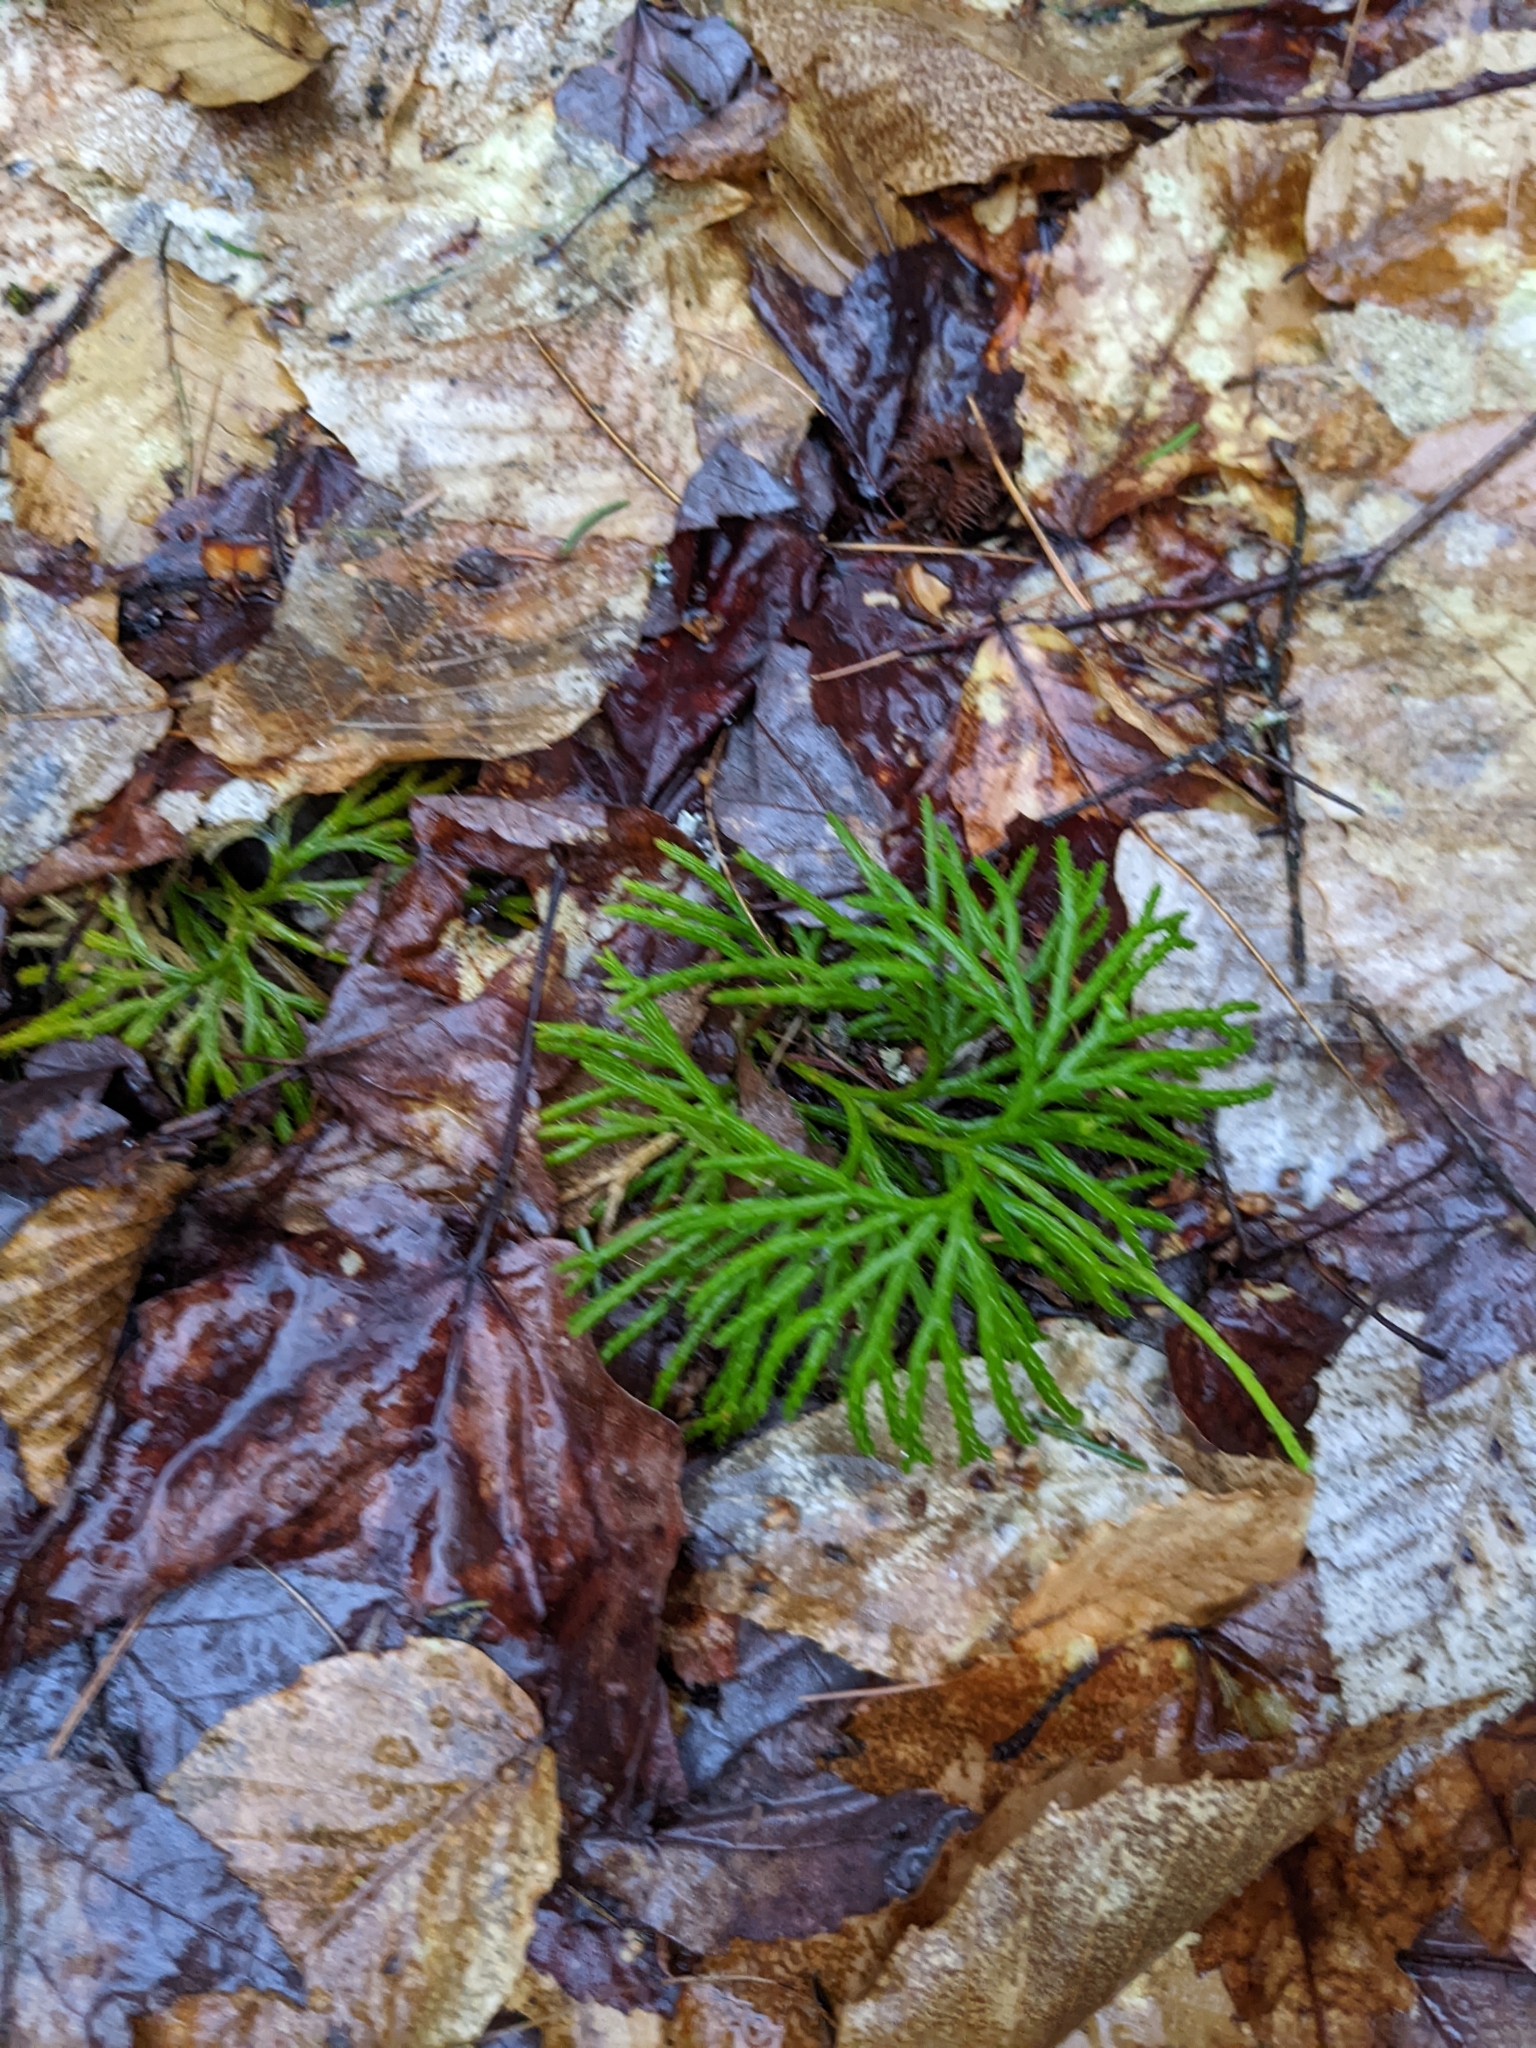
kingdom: Plantae
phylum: Tracheophyta
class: Lycopodiopsida
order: Lycopodiales
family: Lycopodiaceae
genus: Diphasiastrum
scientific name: Diphasiastrum digitatum
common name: Southern running-pine
